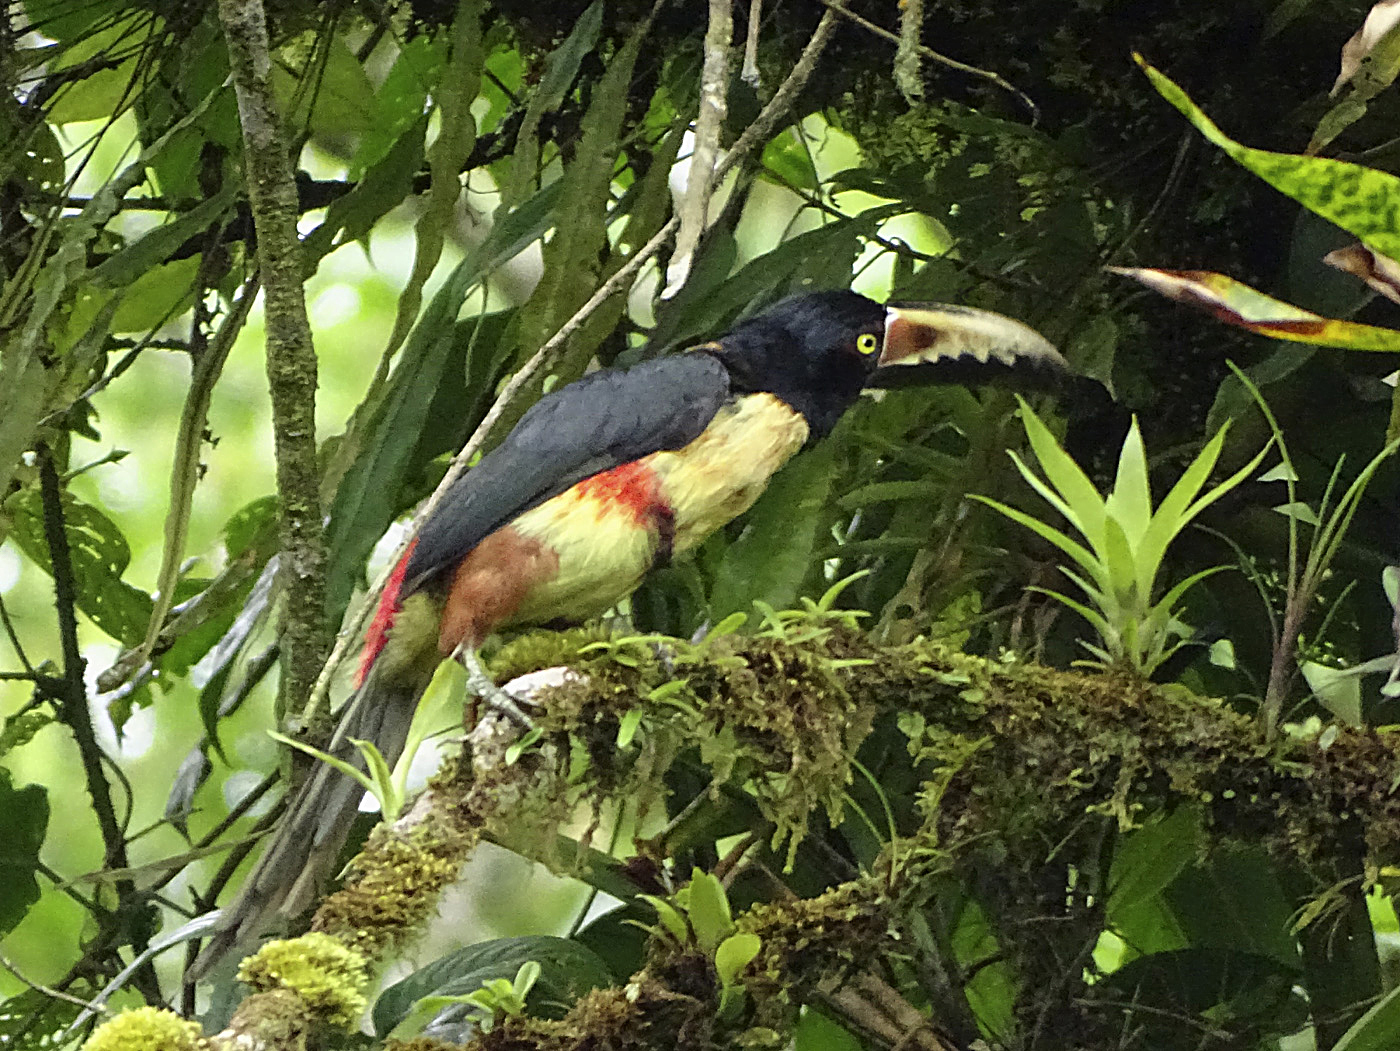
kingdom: Animalia
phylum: Chordata
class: Aves
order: Piciformes
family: Ramphastidae
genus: Pteroglossus
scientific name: Pteroglossus torquatus
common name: Collared aracari
